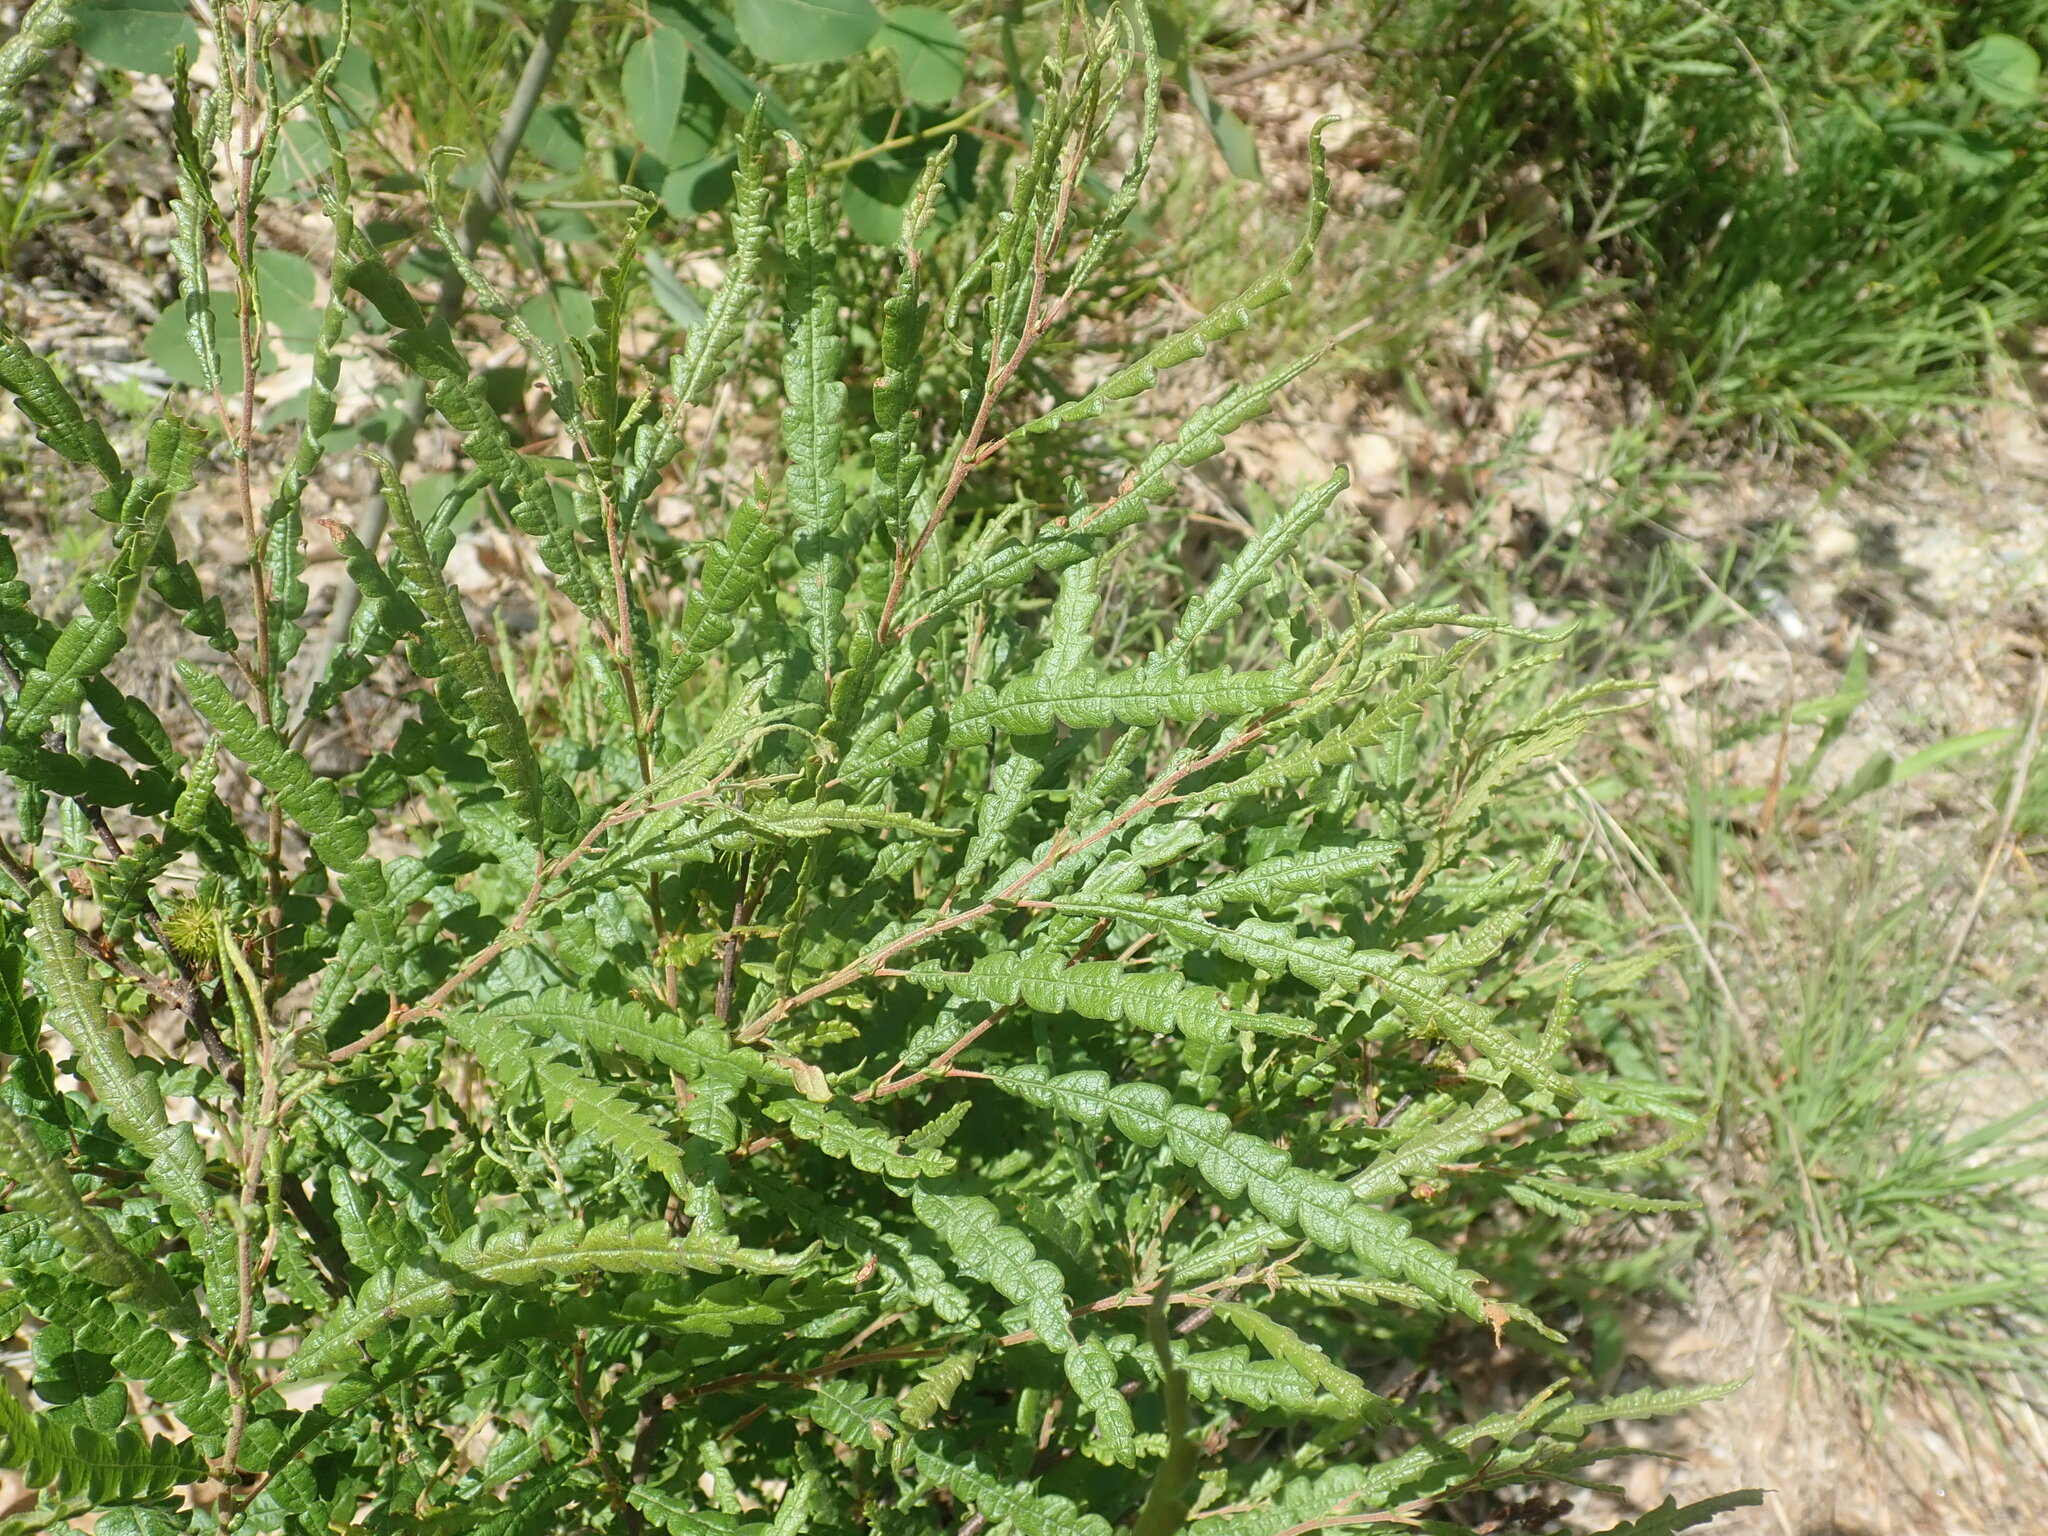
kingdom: Plantae
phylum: Tracheophyta
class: Magnoliopsida
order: Fagales
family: Myricaceae
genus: Comptonia
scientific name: Comptonia peregrina
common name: Sweet-fern
